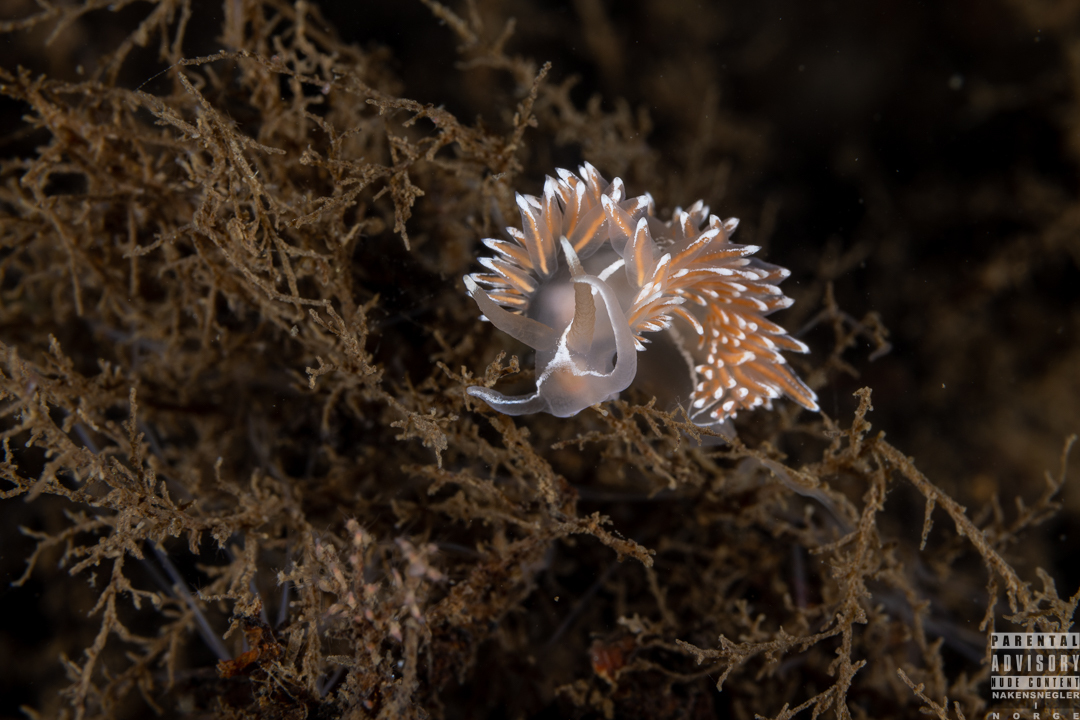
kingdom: Animalia
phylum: Mollusca
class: Gastropoda
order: Nudibranchia
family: Coryphellidae
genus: Coryphella
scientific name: Coryphella lineata
